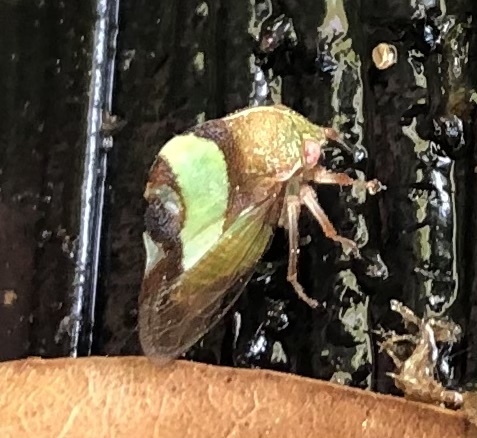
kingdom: Animalia
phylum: Arthropoda
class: Insecta
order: Hemiptera
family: Membracidae
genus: Smilia
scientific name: Smilia fasciata
